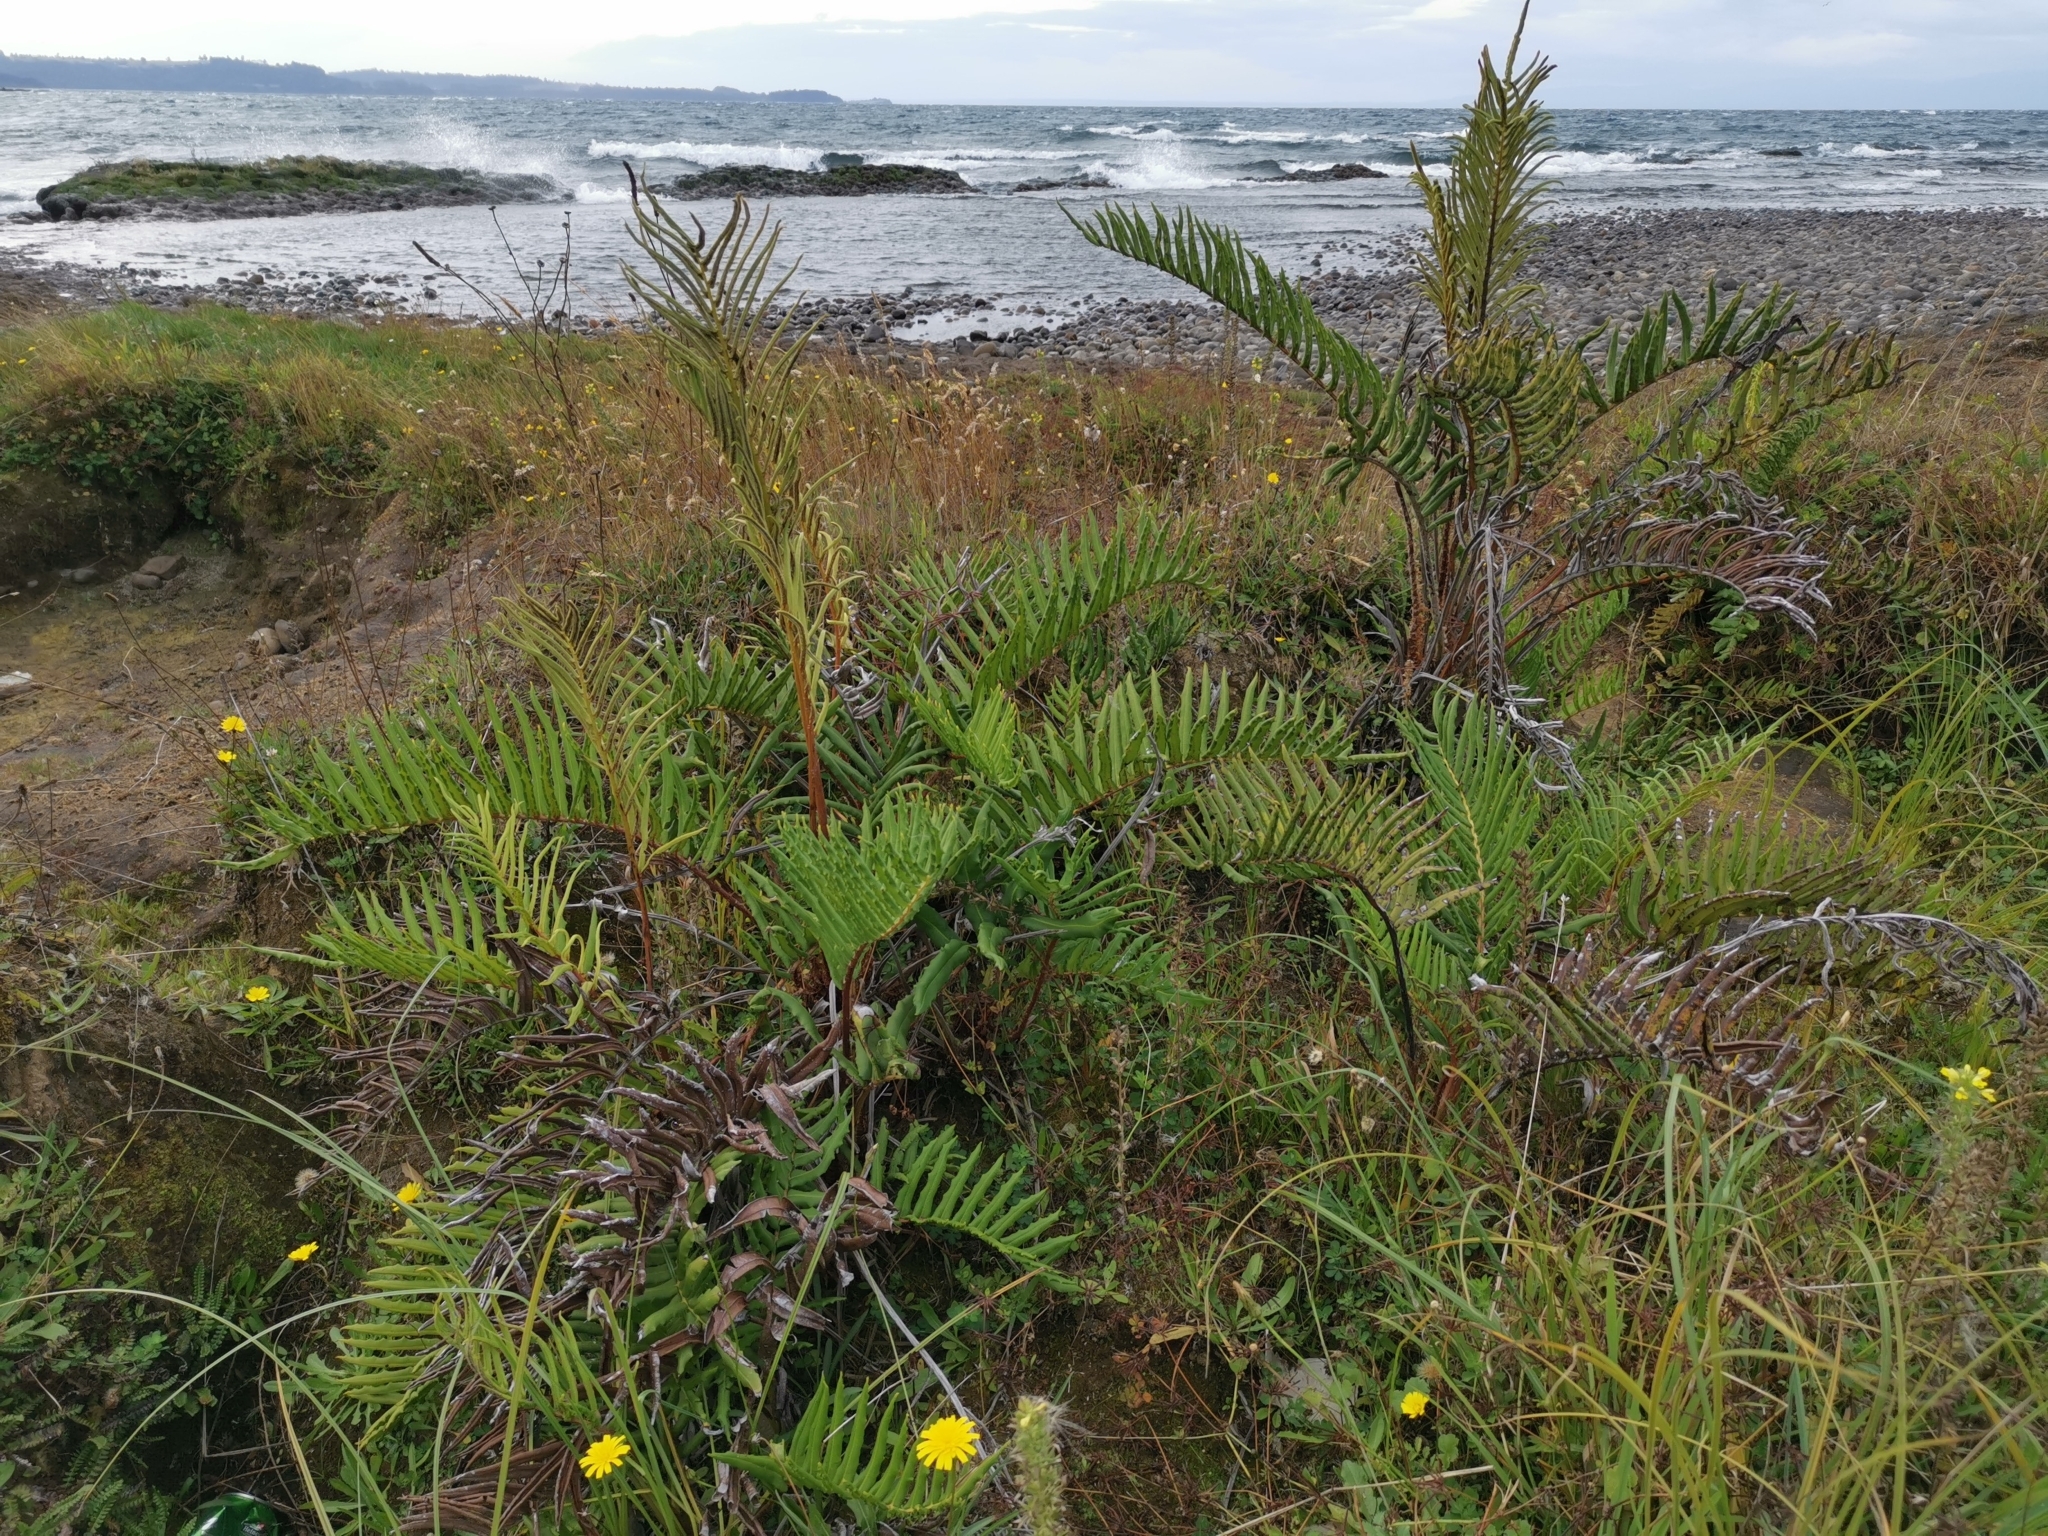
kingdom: Plantae
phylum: Tracheophyta
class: Polypodiopsida
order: Polypodiales
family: Blechnaceae
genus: Parablechnum
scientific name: Parablechnum chilense
